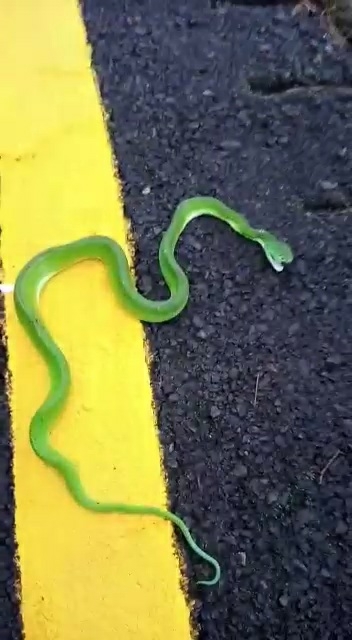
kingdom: Animalia
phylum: Chordata
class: Squamata
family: Viperidae
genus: Bothriechis
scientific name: Bothriechis lateralis
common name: Coffee palm viper
